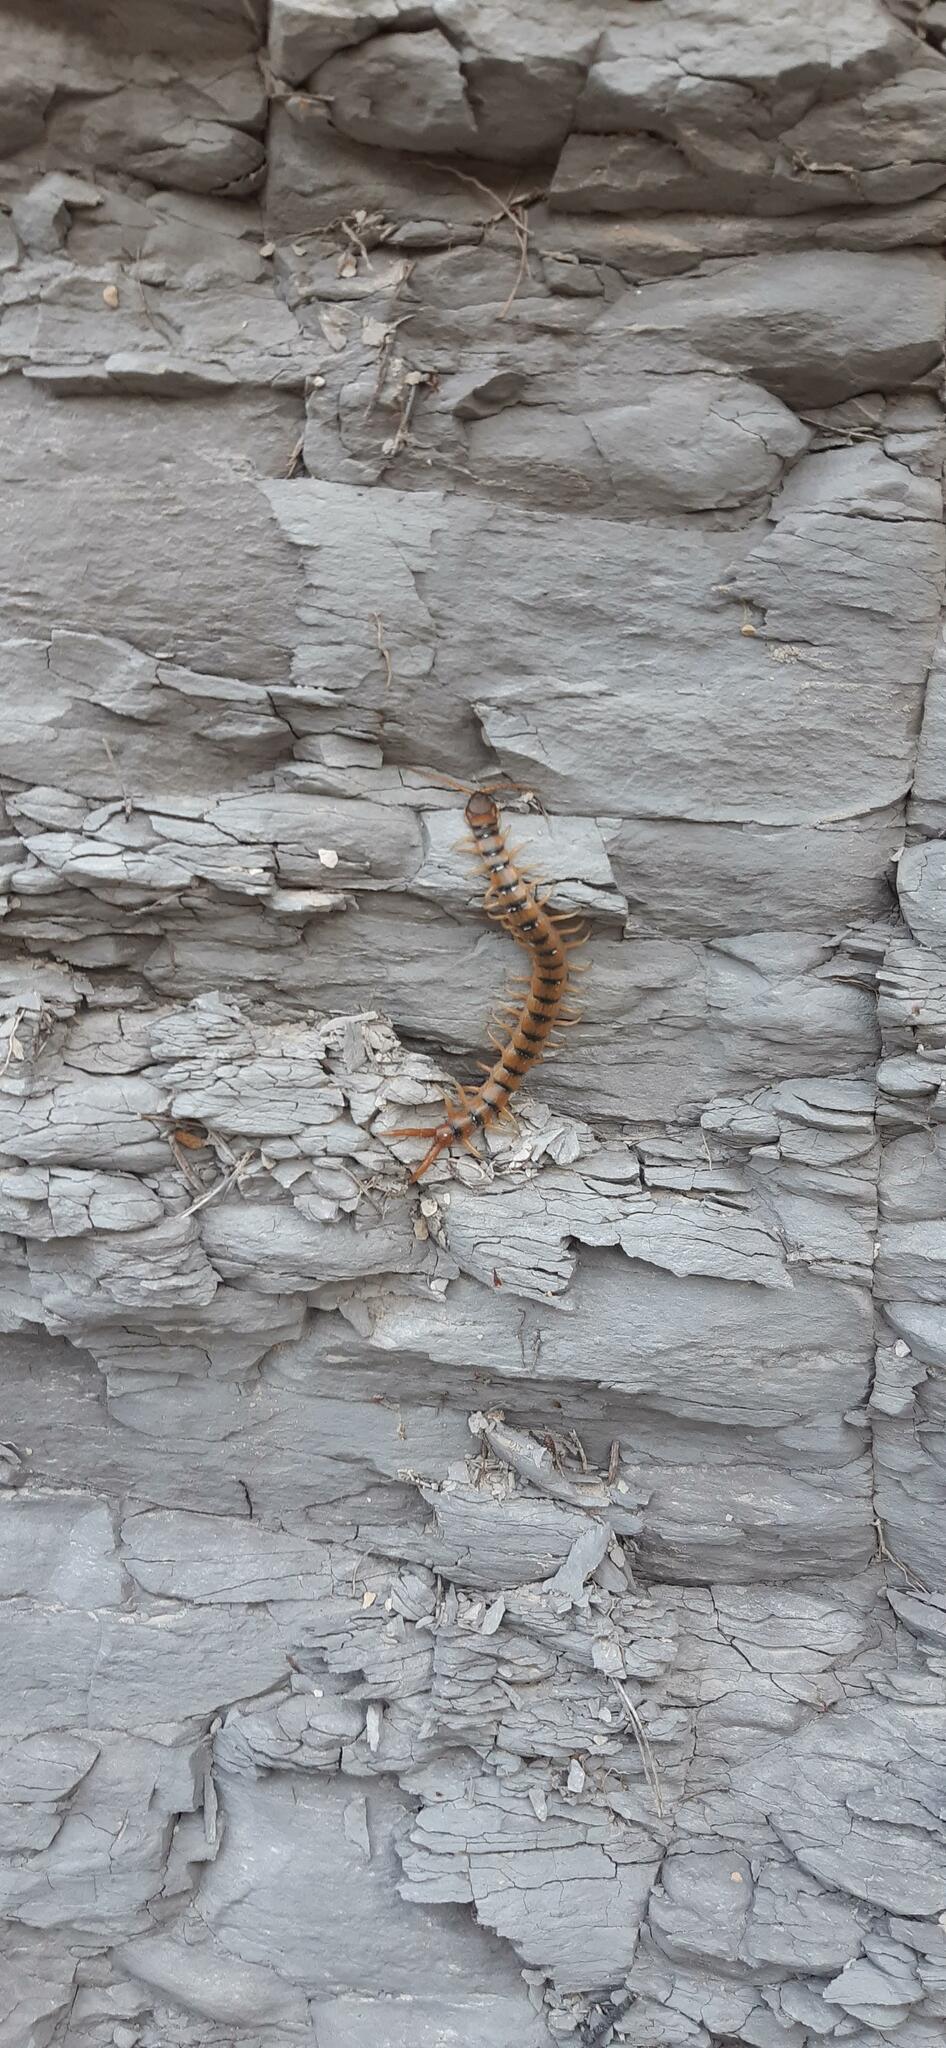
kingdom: Animalia
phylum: Arthropoda
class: Chilopoda
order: Scolopendromorpha
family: Scolopendridae
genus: Scolopendra
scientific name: Scolopendra cingulata
